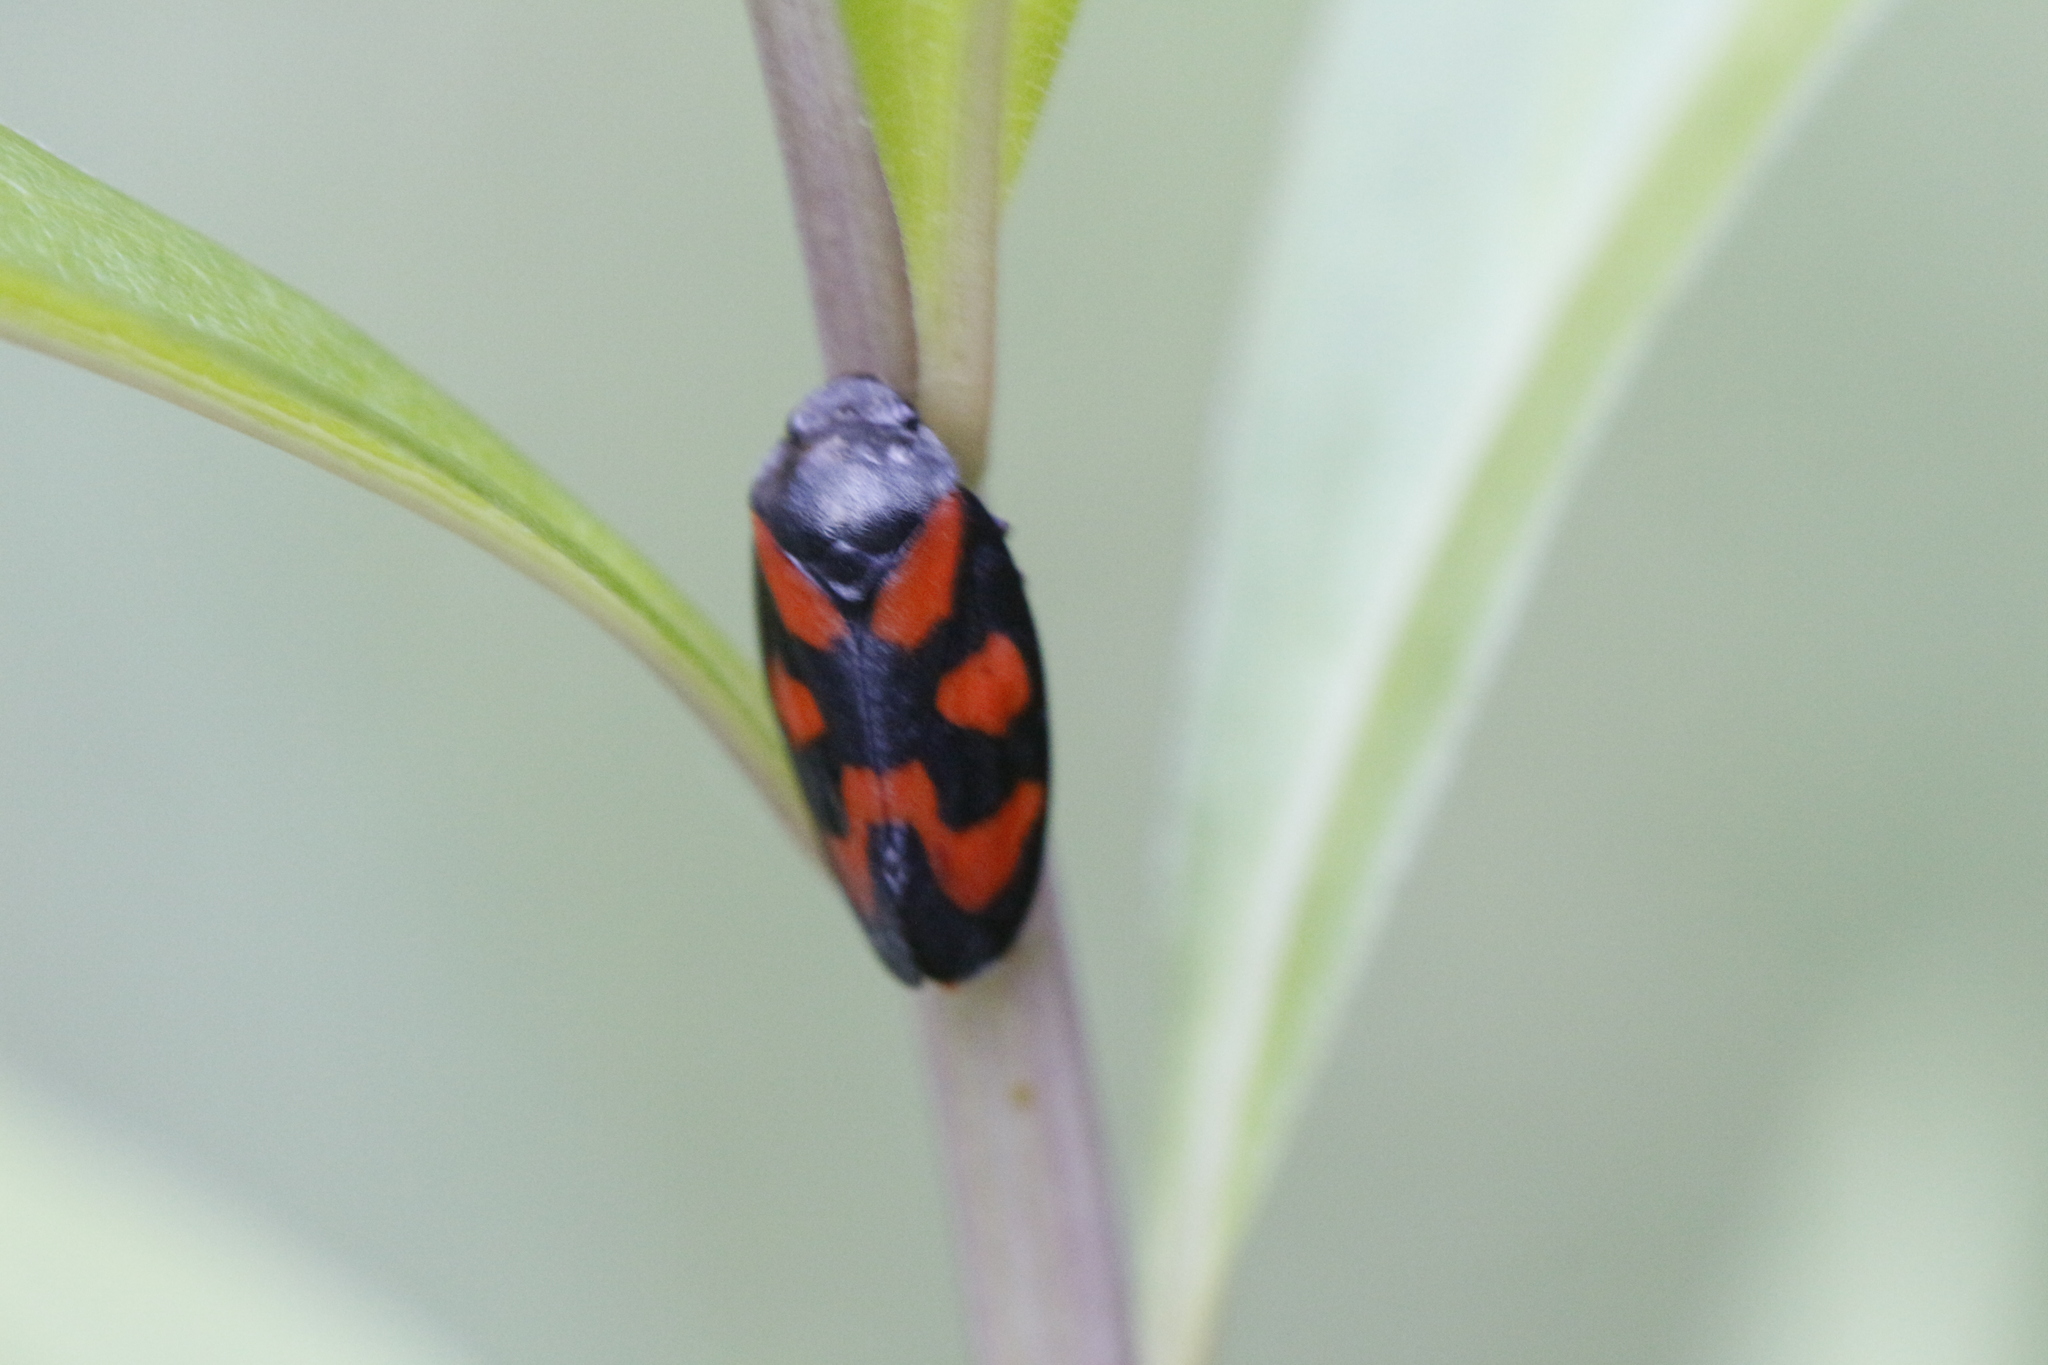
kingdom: Animalia
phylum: Arthropoda
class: Insecta
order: Hemiptera
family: Cercopidae
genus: Cercopis
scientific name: Cercopis vulnerata
